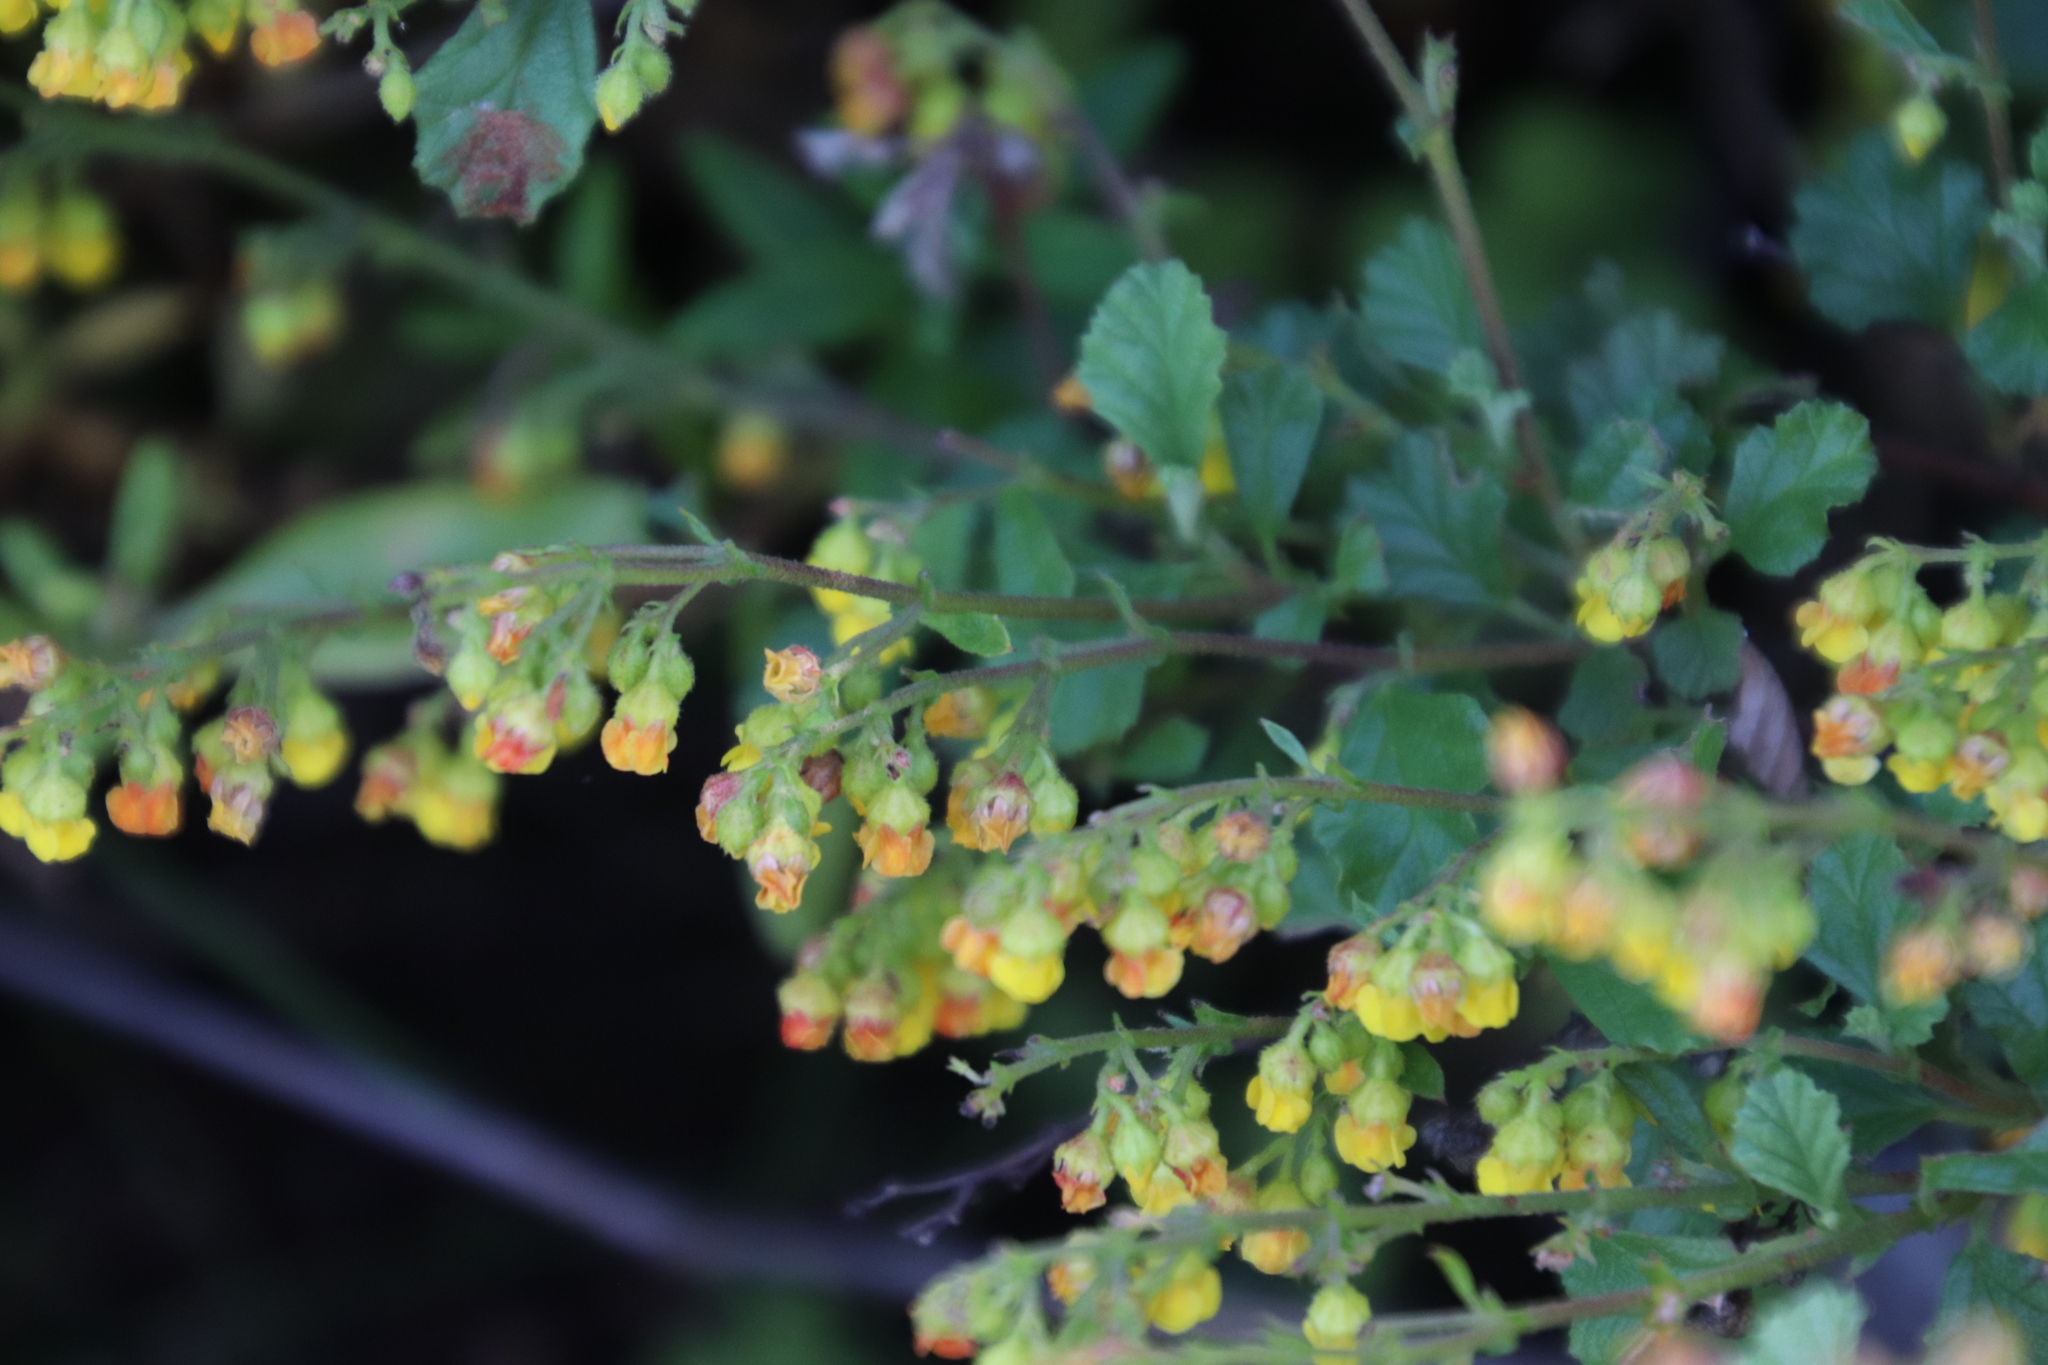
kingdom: Plantae
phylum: Tracheophyta
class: Magnoliopsida
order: Malvales
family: Malvaceae
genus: Hermannia
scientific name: Hermannia alnifolia
